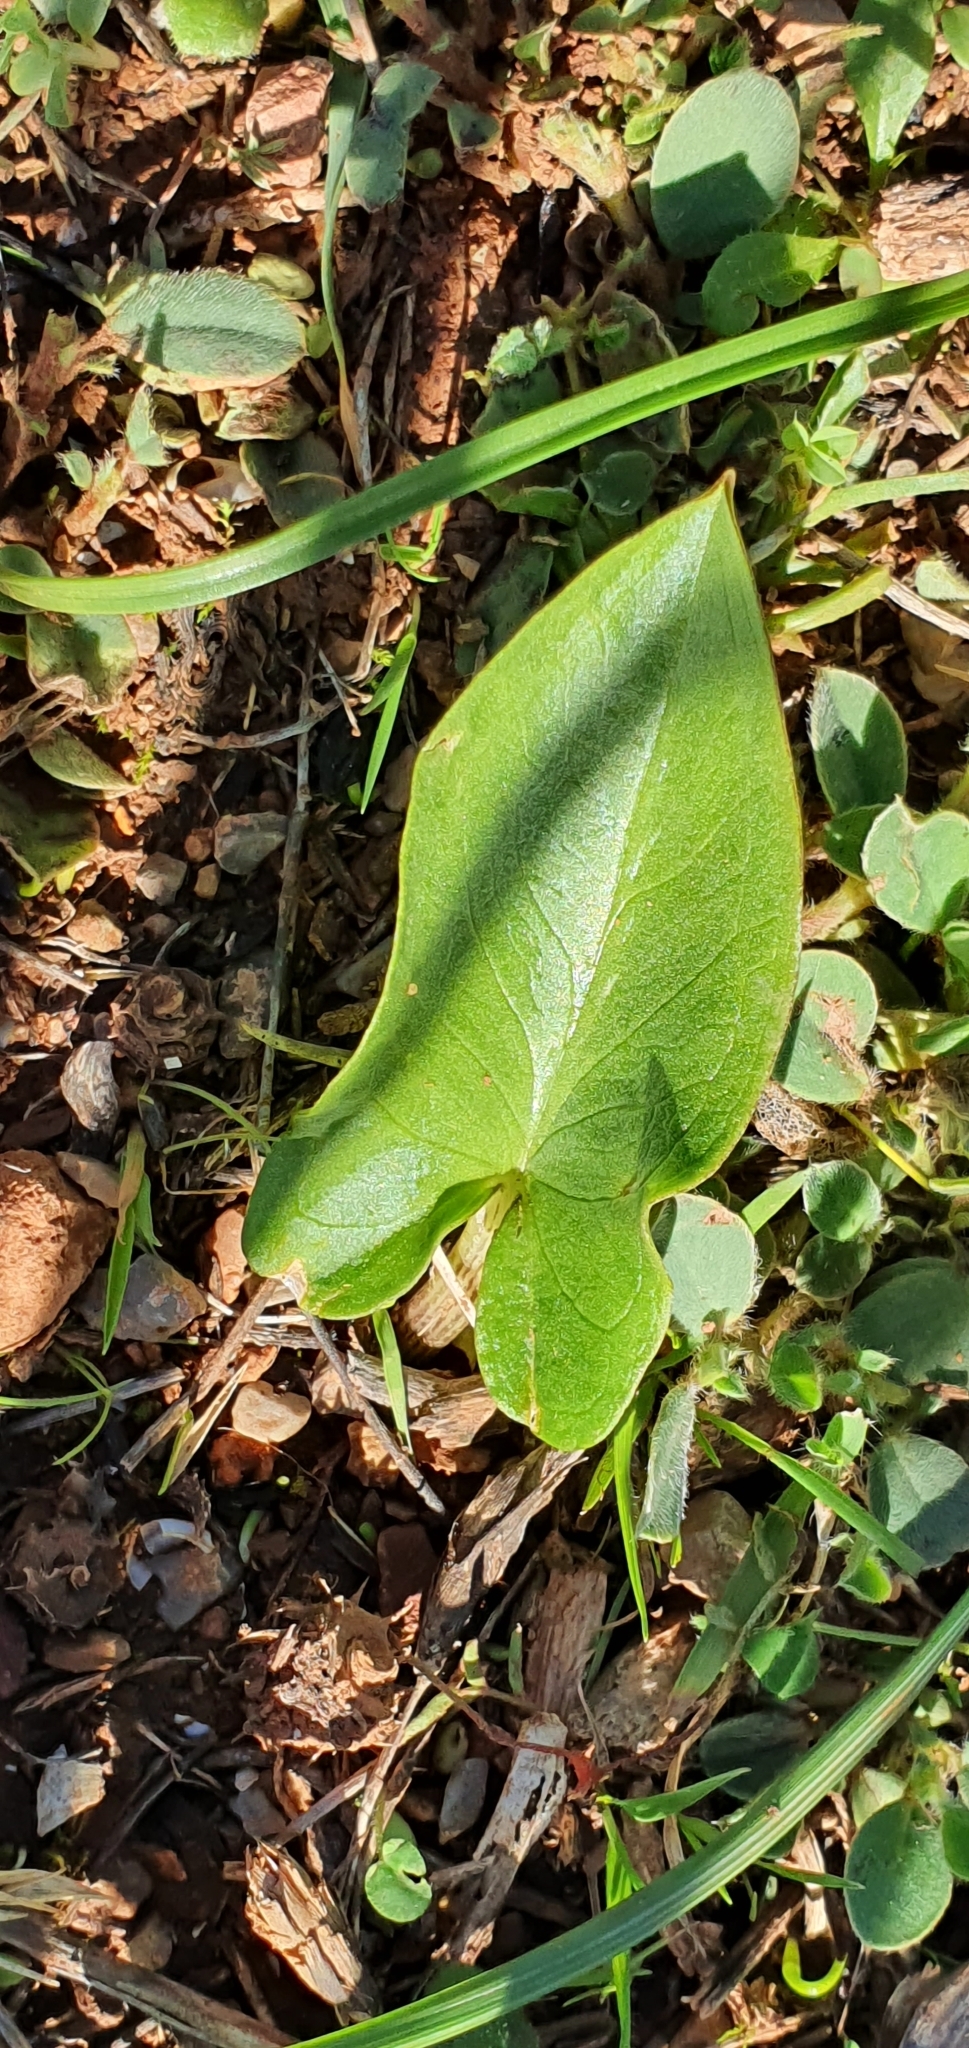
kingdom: Plantae
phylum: Tracheophyta
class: Liliopsida
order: Alismatales
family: Araceae
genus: Arisarum
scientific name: Arisarum vulgare
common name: Common arisarum
